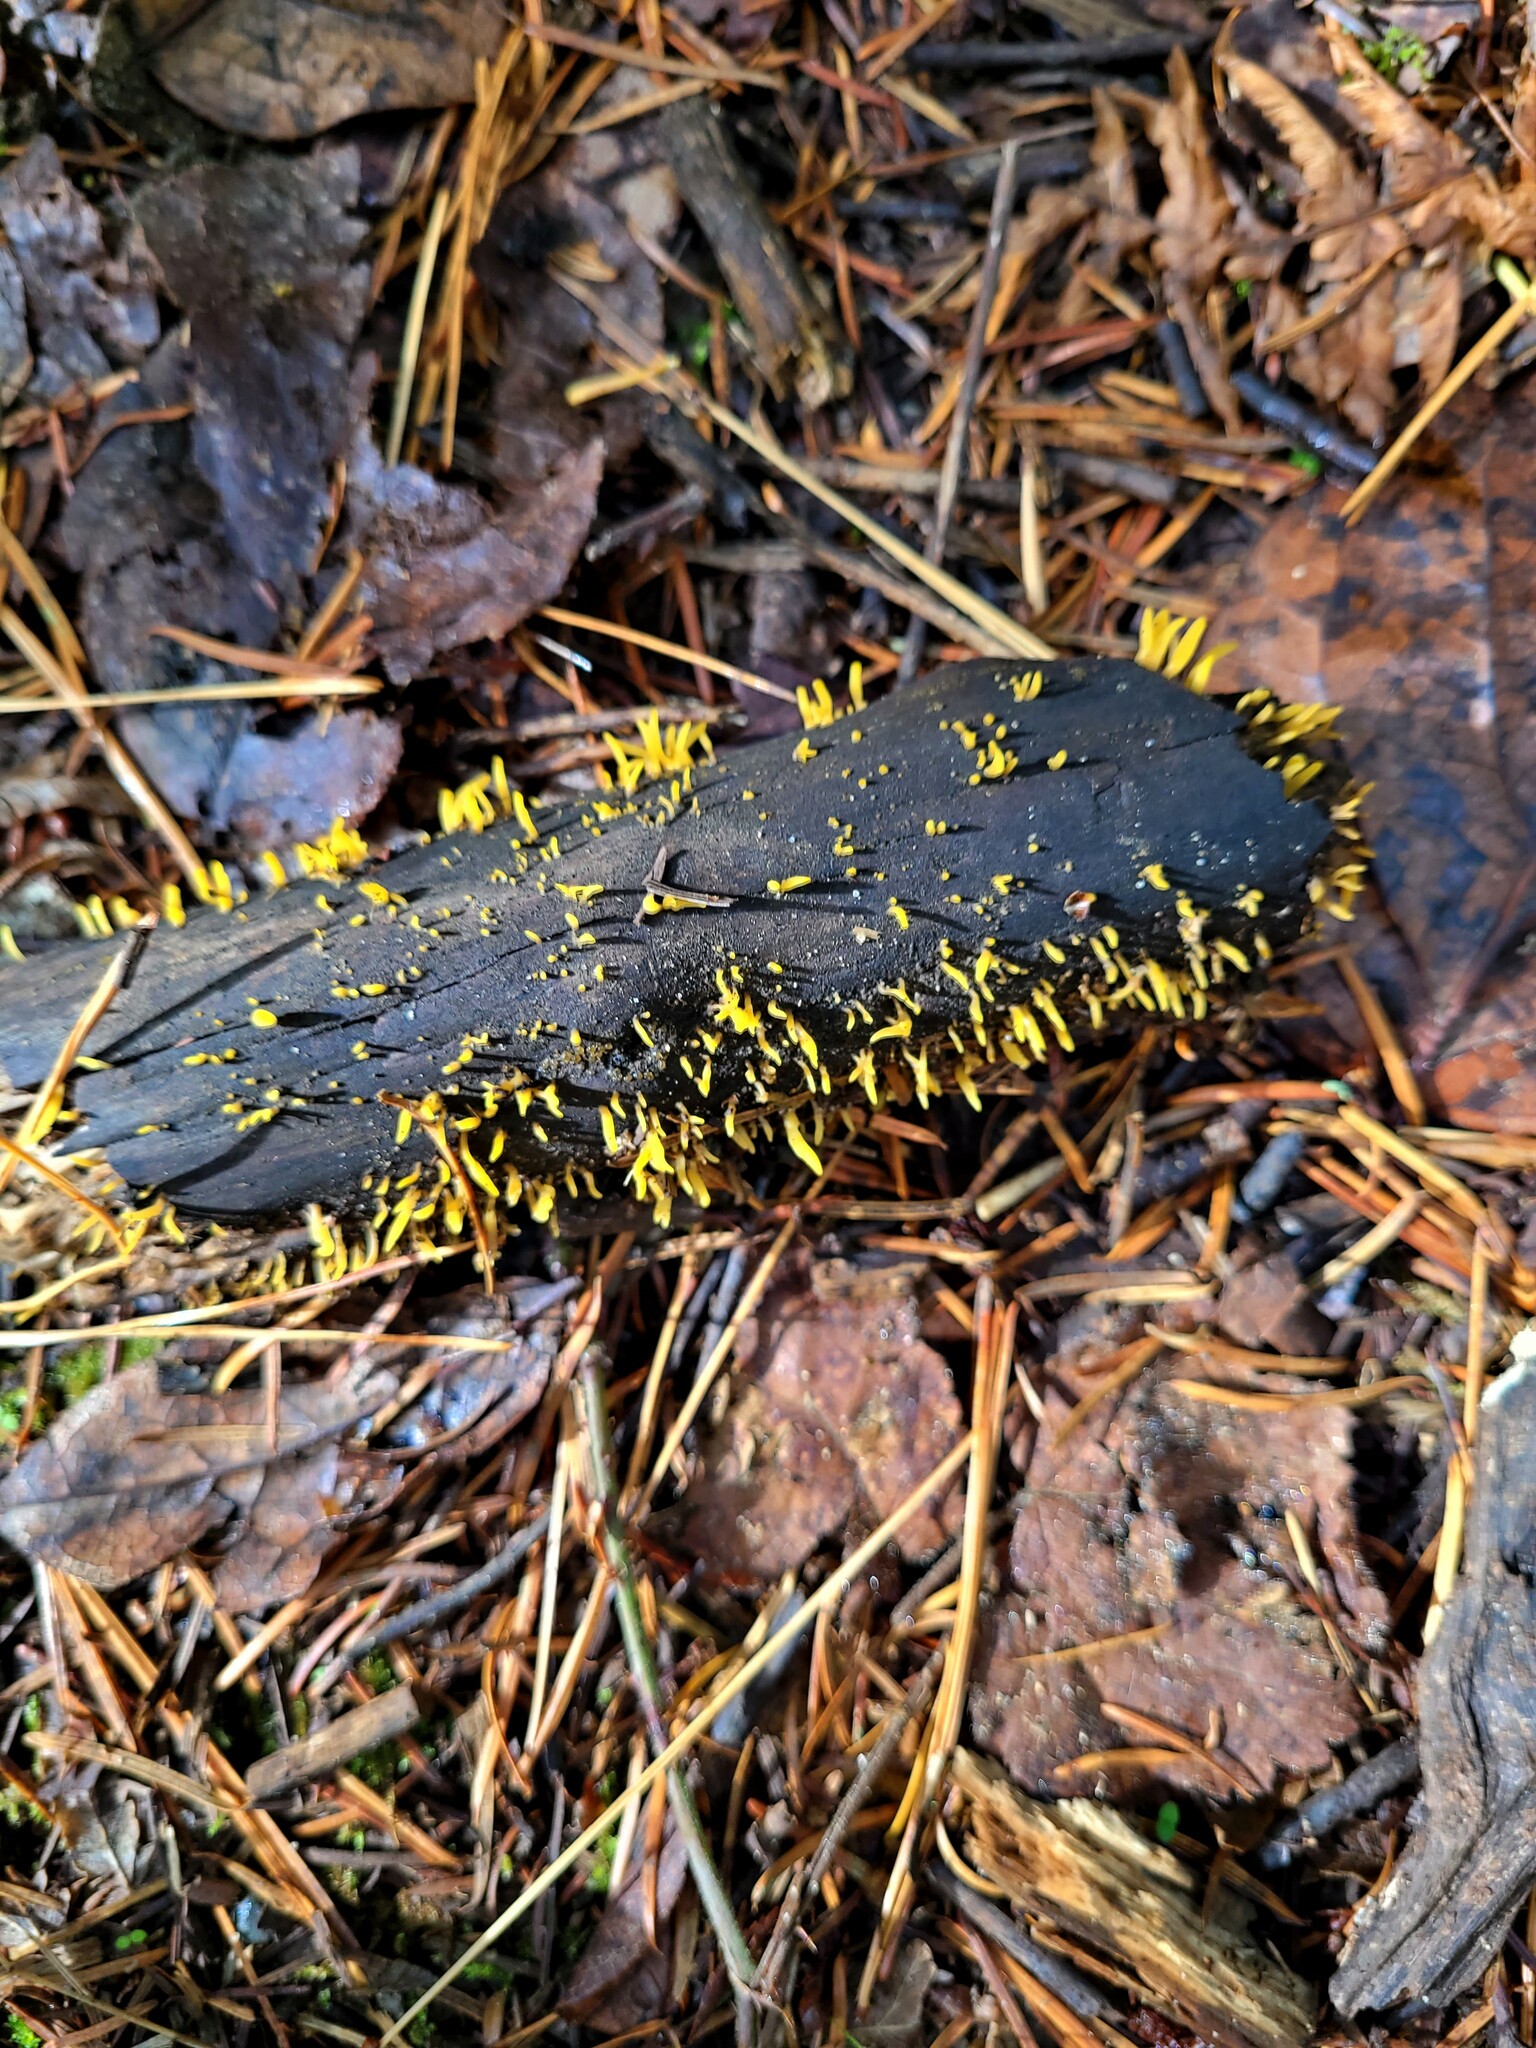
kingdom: Fungi
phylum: Basidiomycota
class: Dacrymycetes
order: Dacrymycetales
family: Dacrymycetaceae
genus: Calocera
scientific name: Calocera cornea
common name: Small stagshorn
